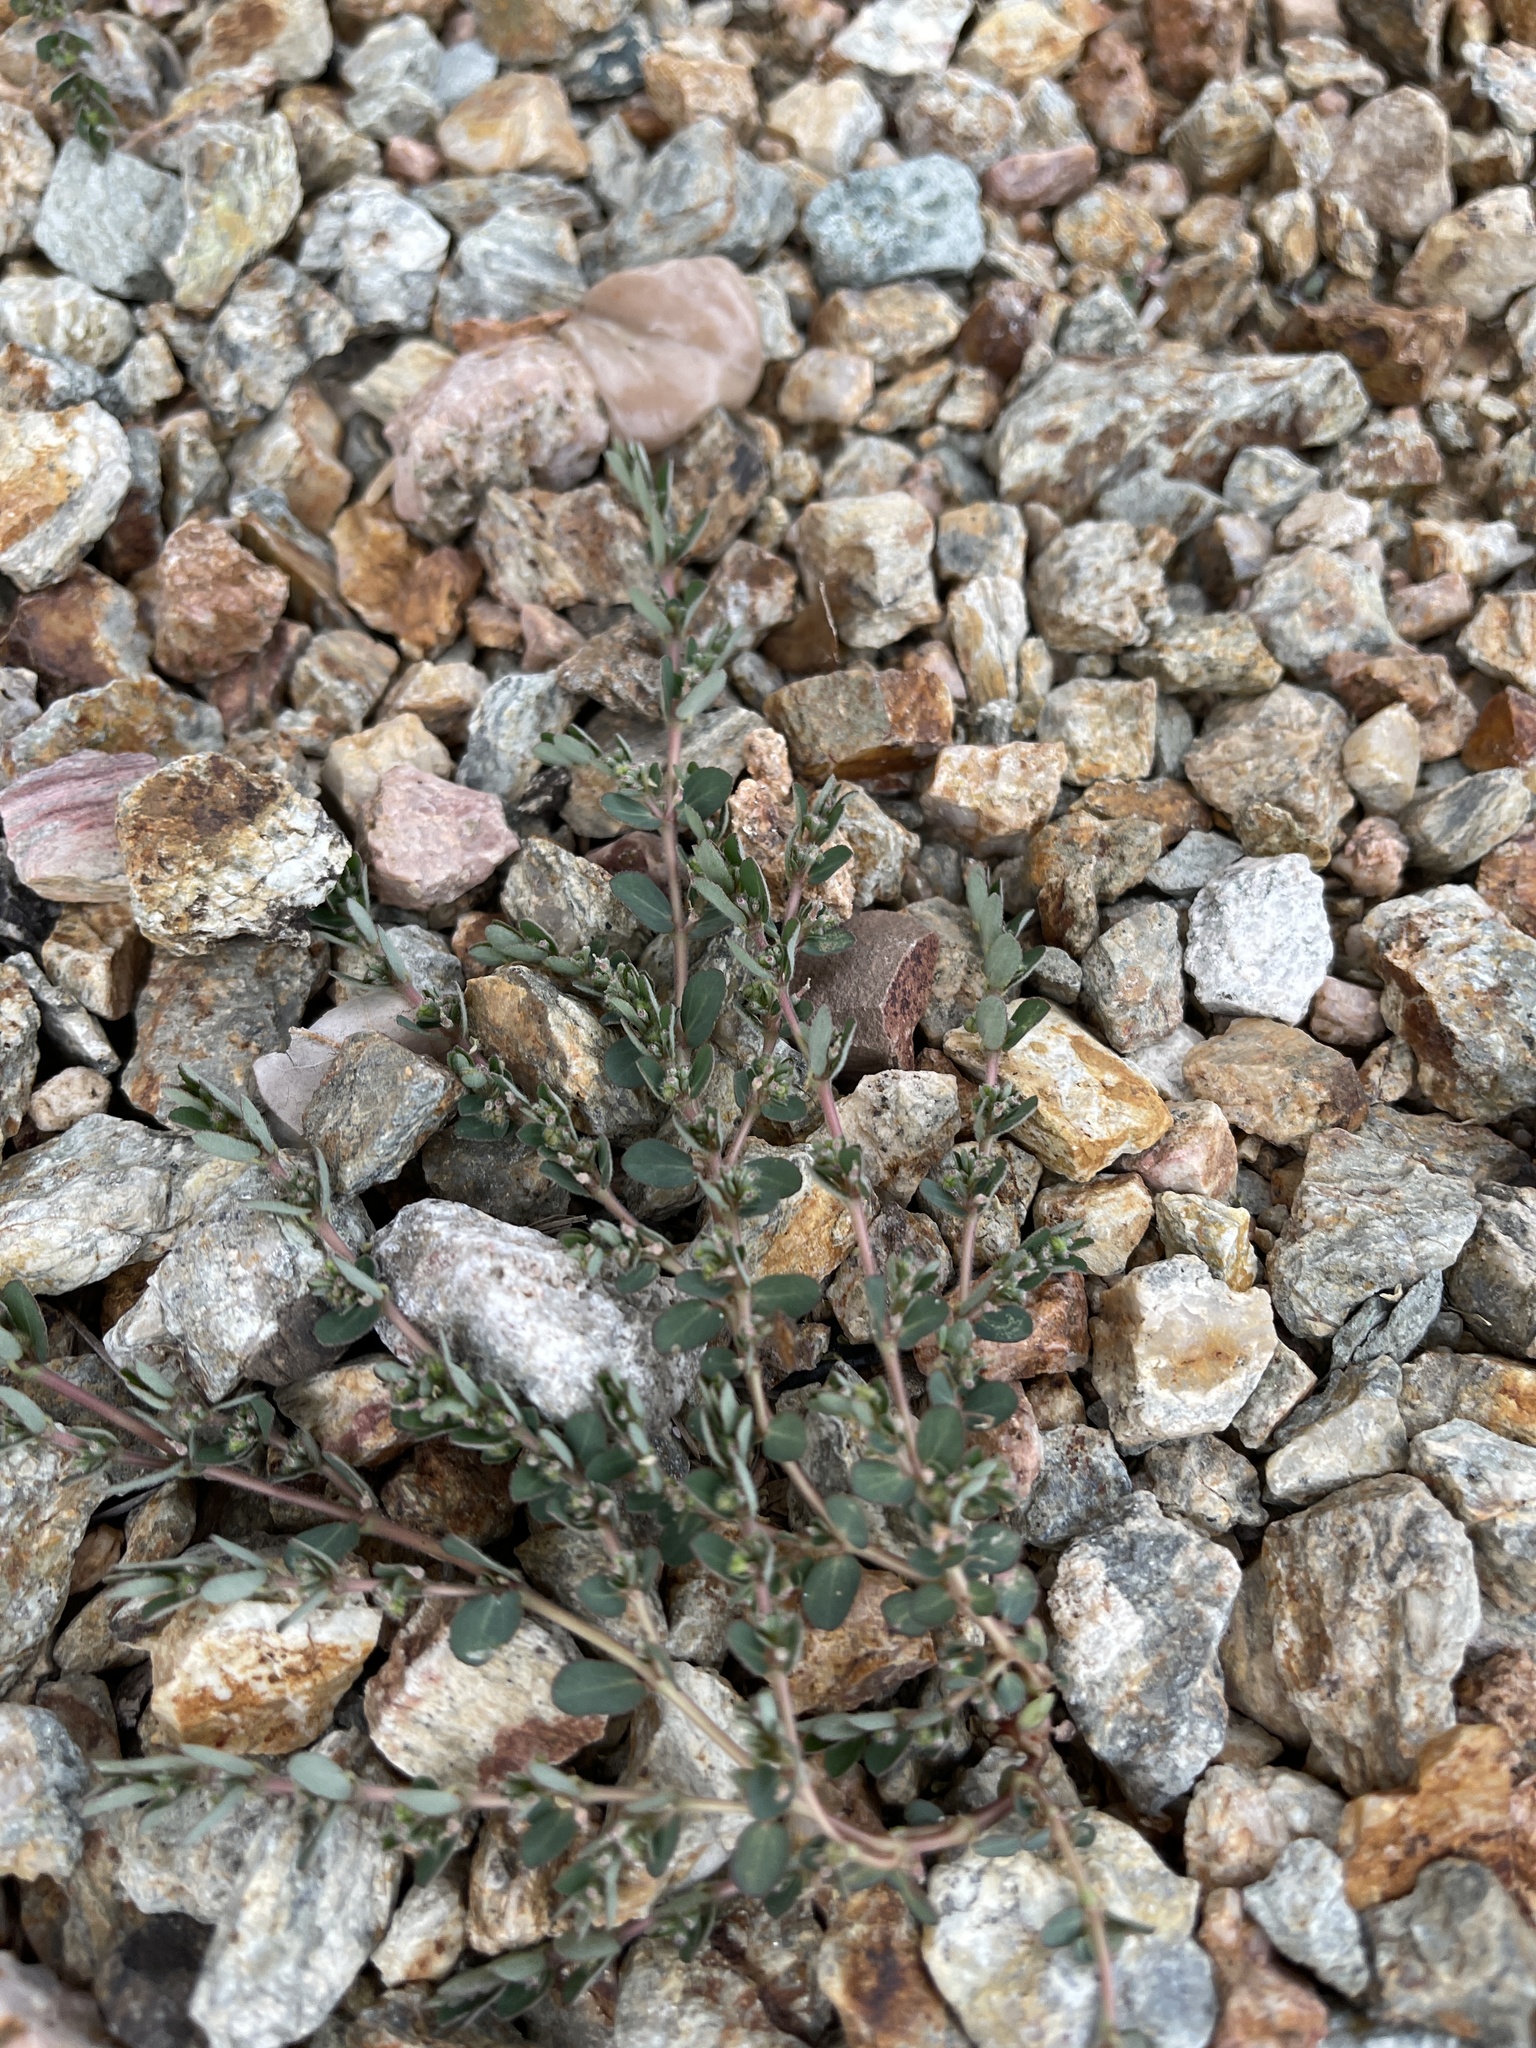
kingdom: Plantae
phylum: Tracheophyta
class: Magnoliopsida
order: Malpighiales
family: Euphorbiaceae
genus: Euphorbia
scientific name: Euphorbia prostrata
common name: Prostrate sandmat
